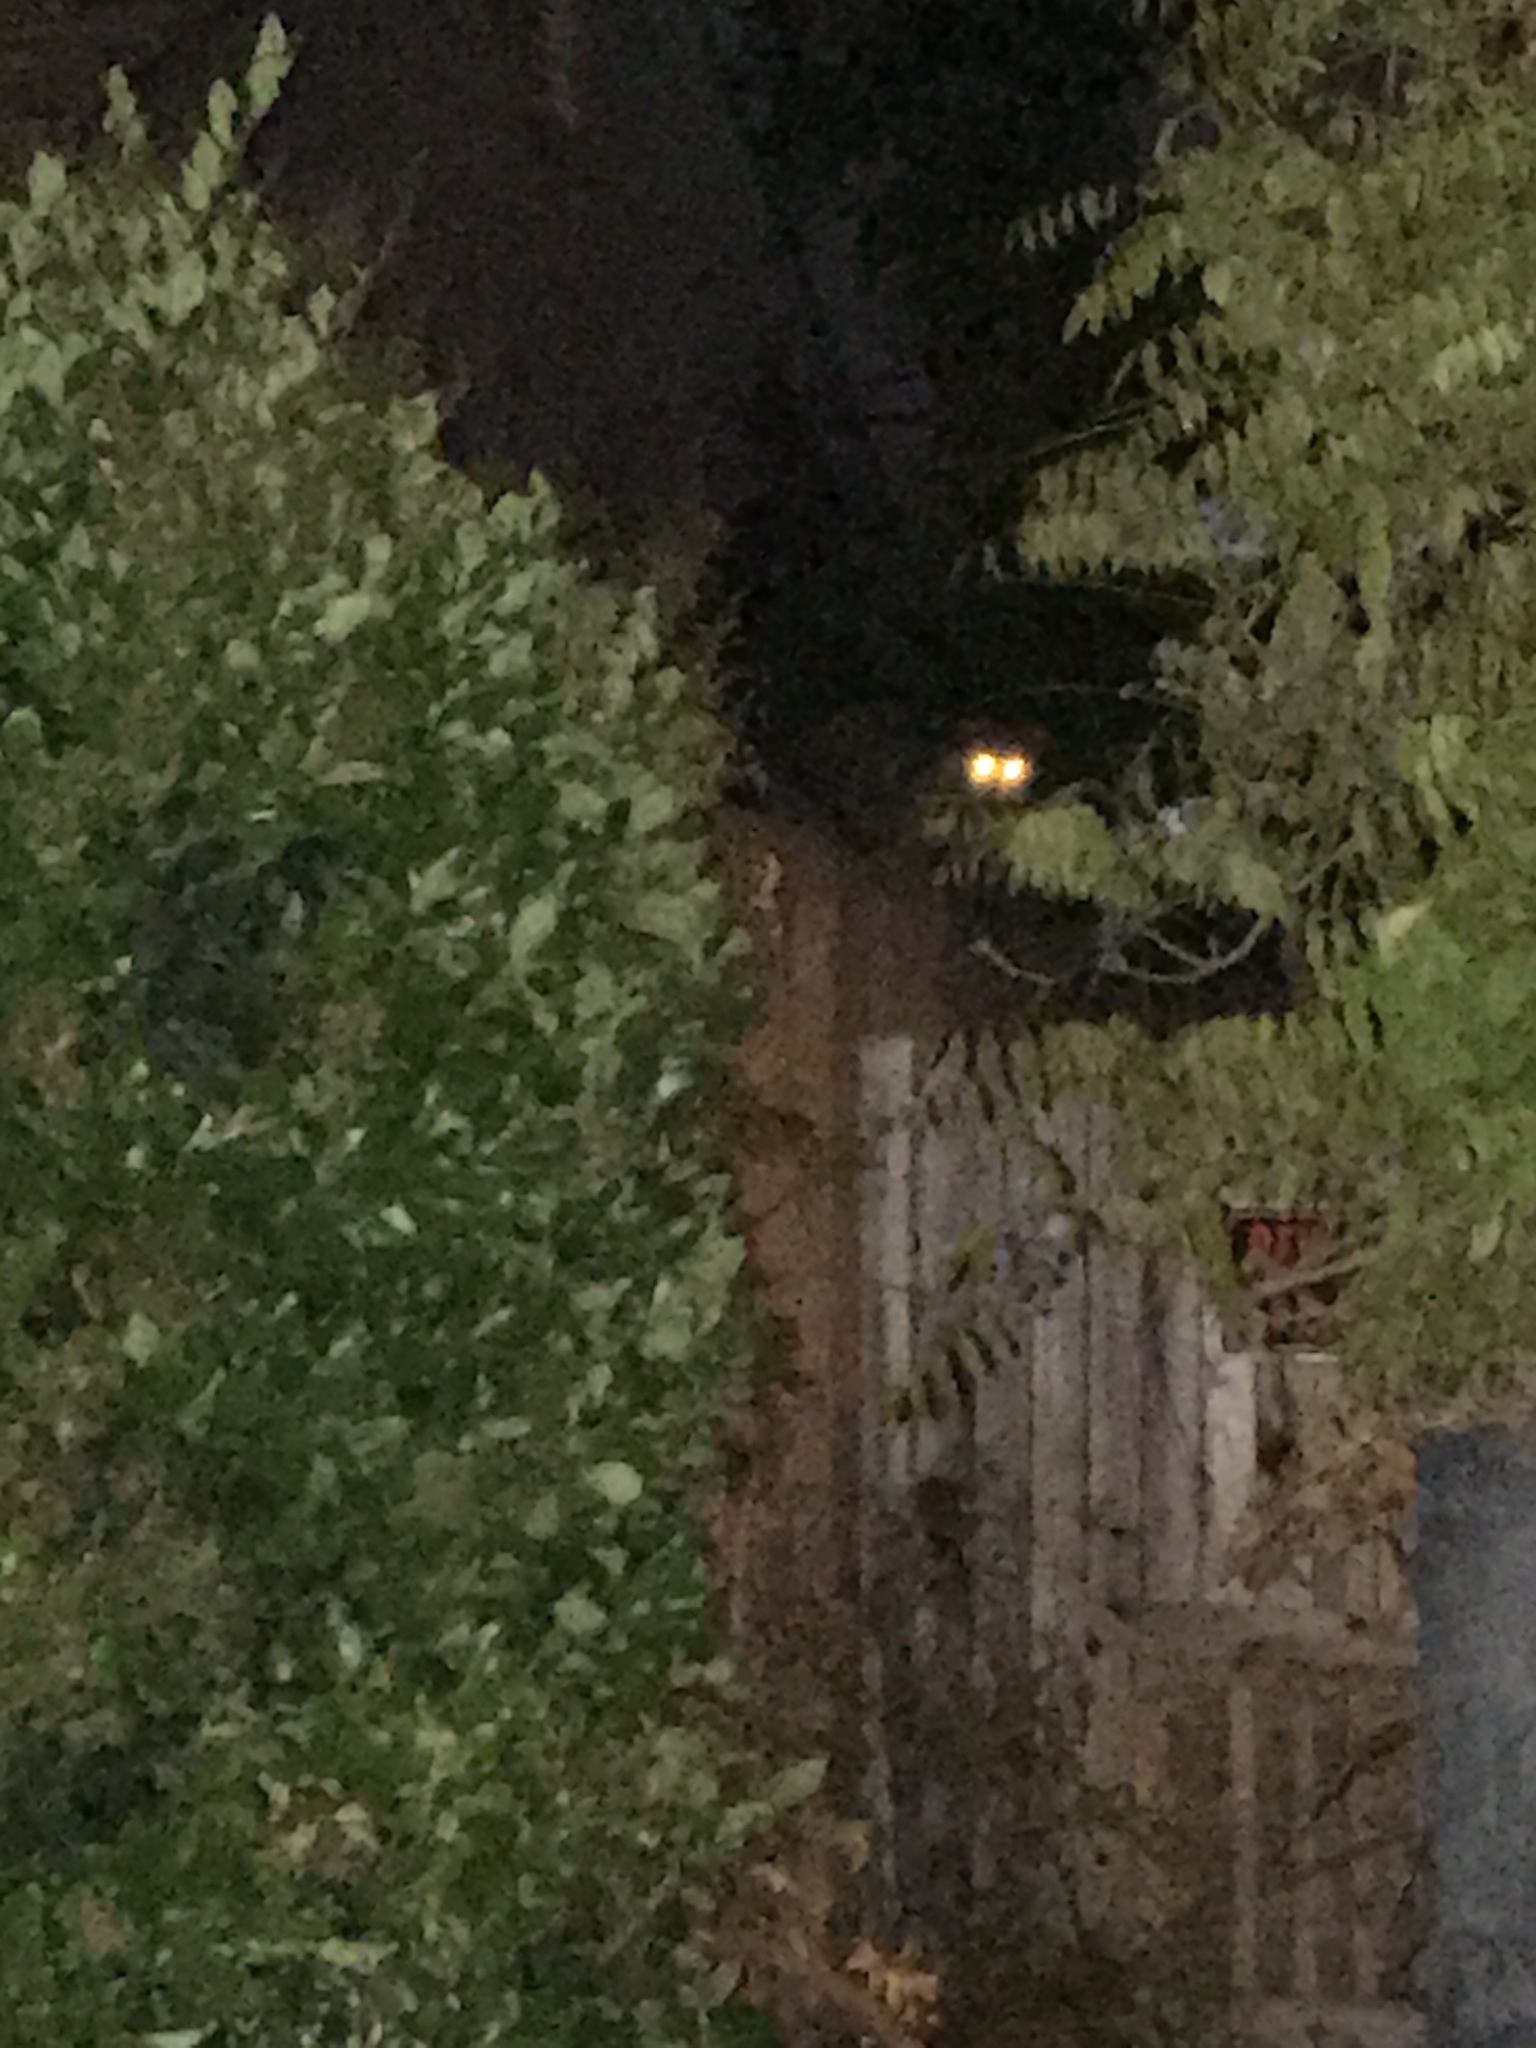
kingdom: Animalia
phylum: Chordata
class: Mammalia
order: Carnivora
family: Procyonidae
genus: Procyon
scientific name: Procyon lotor
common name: Raccoon
